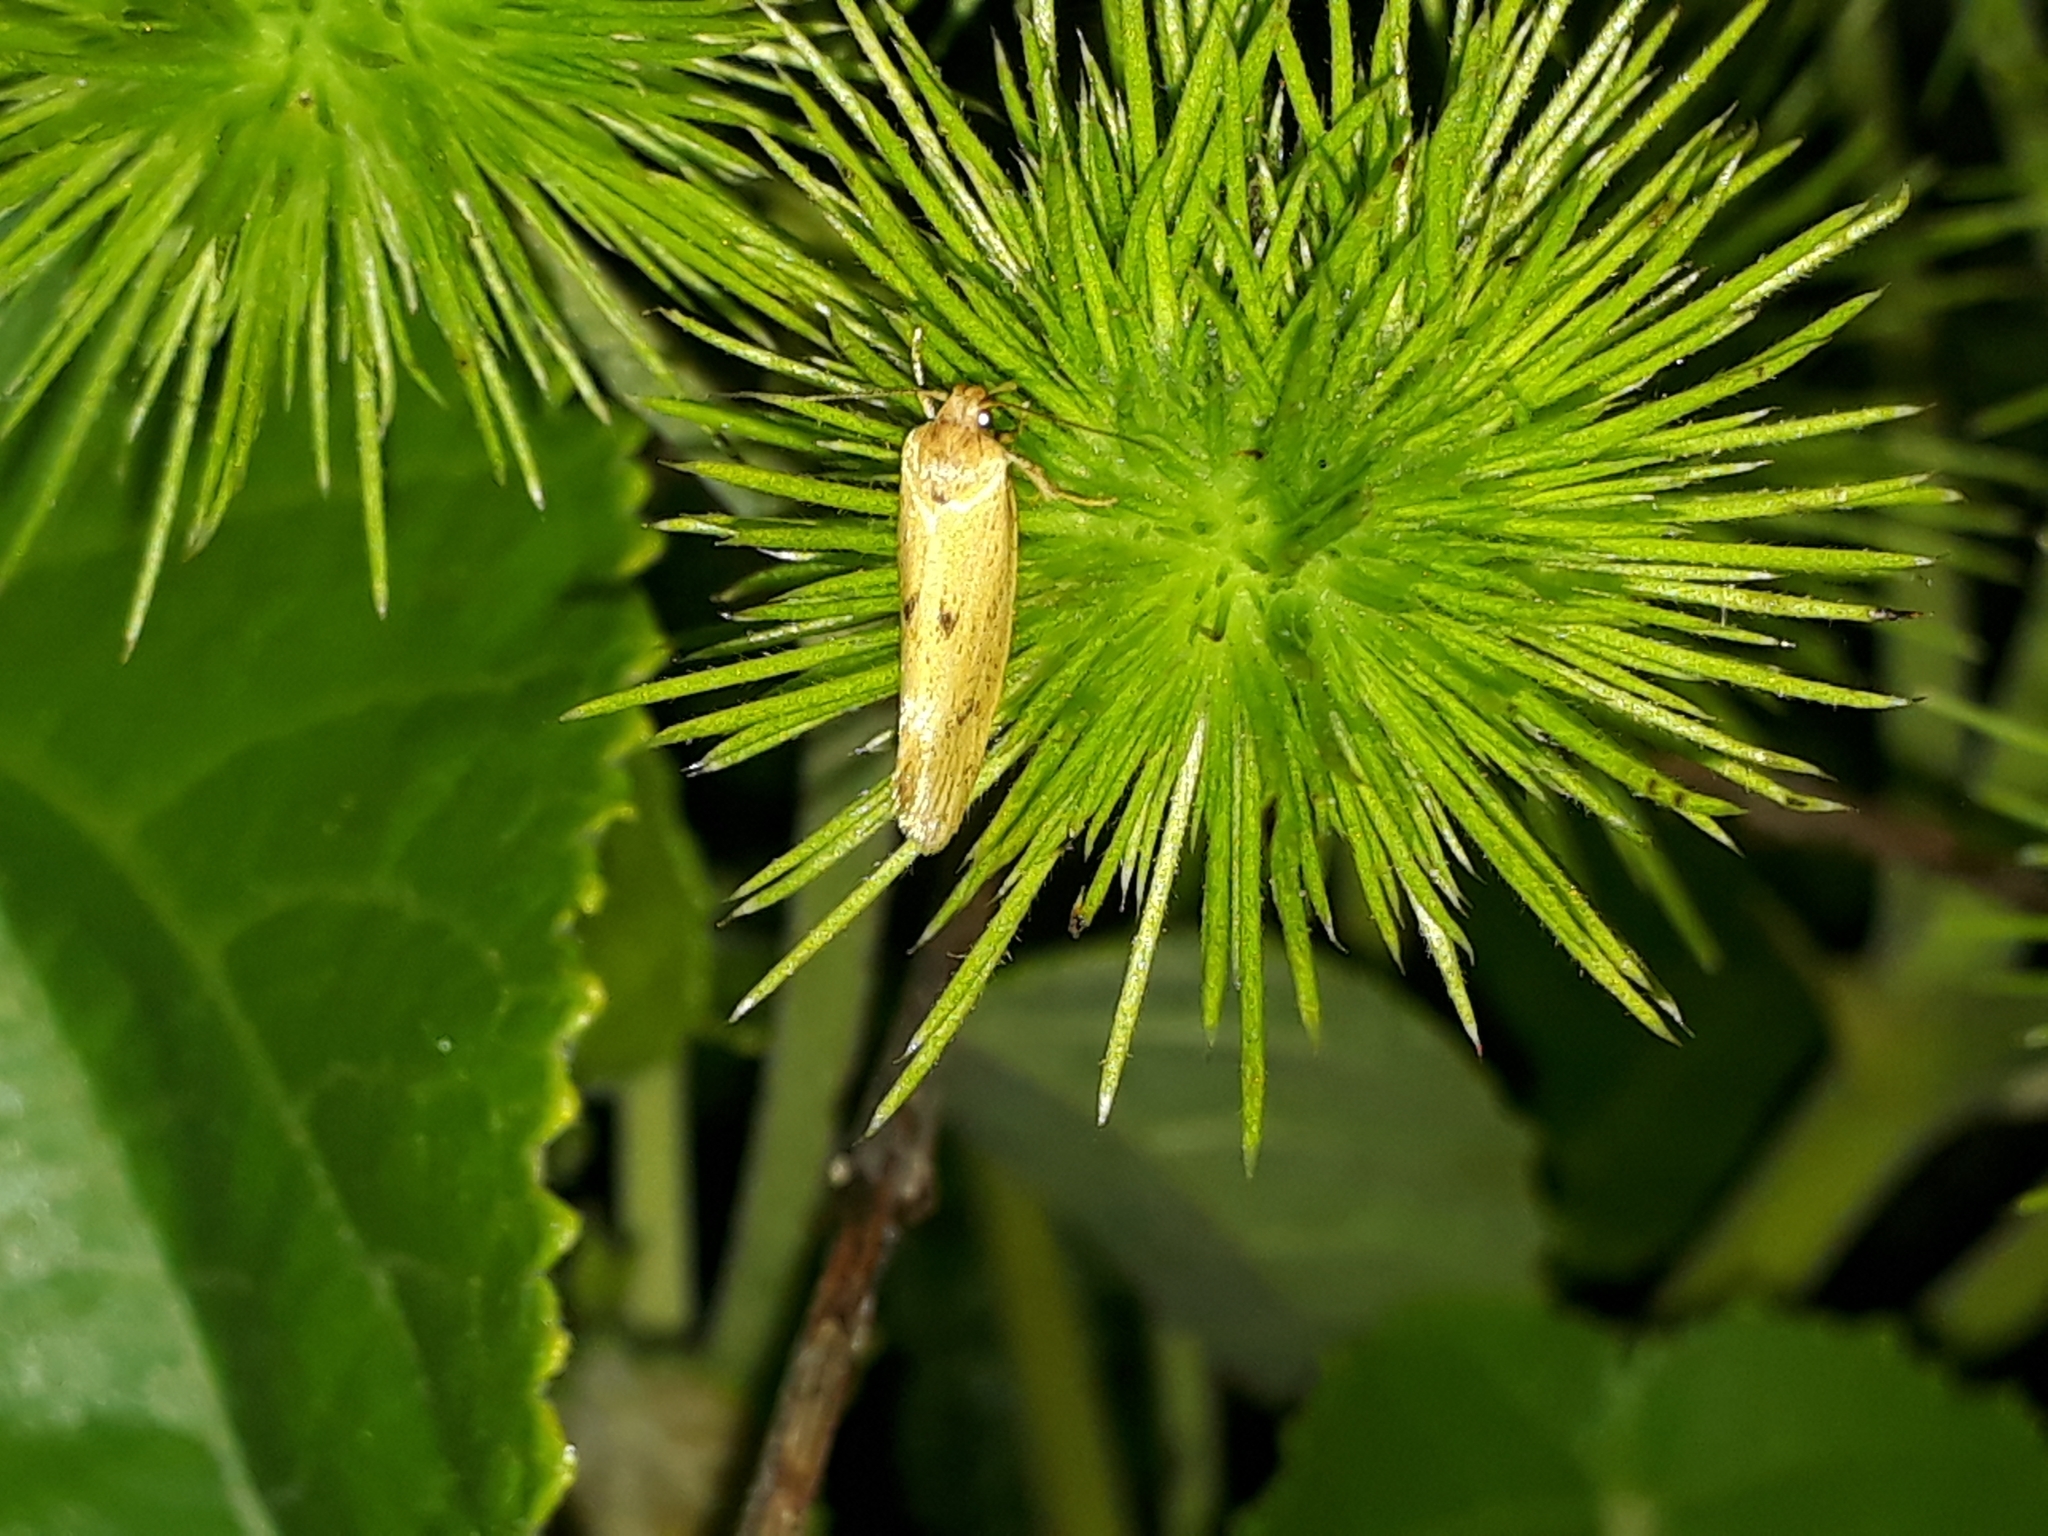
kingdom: Animalia
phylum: Arthropoda
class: Insecta
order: Lepidoptera
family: Oecophoridae
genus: Tingena
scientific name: Tingena
